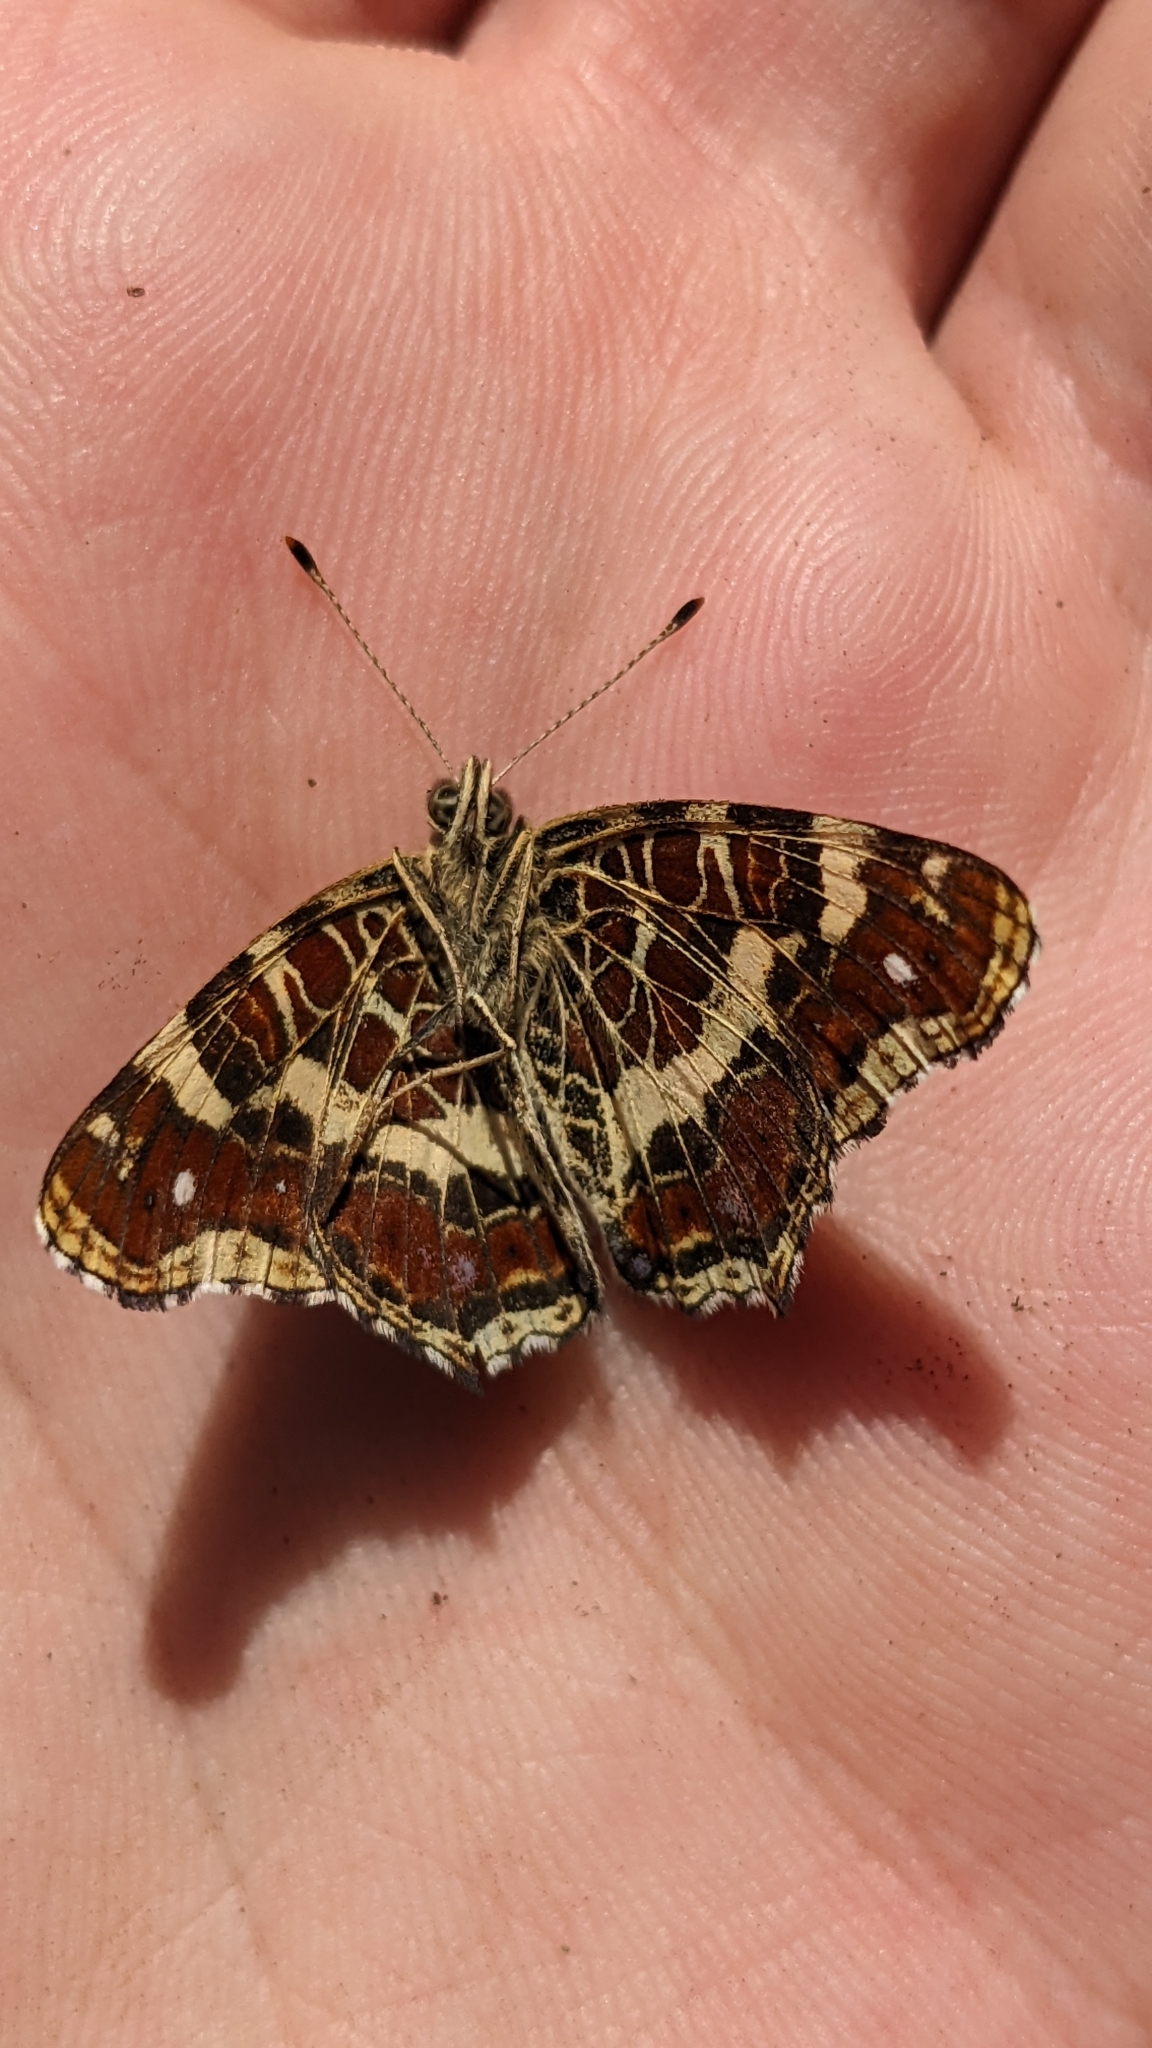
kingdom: Animalia
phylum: Arthropoda
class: Insecta
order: Lepidoptera
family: Nymphalidae
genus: Araschnia
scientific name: Araschnia levana
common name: Map butterfly
